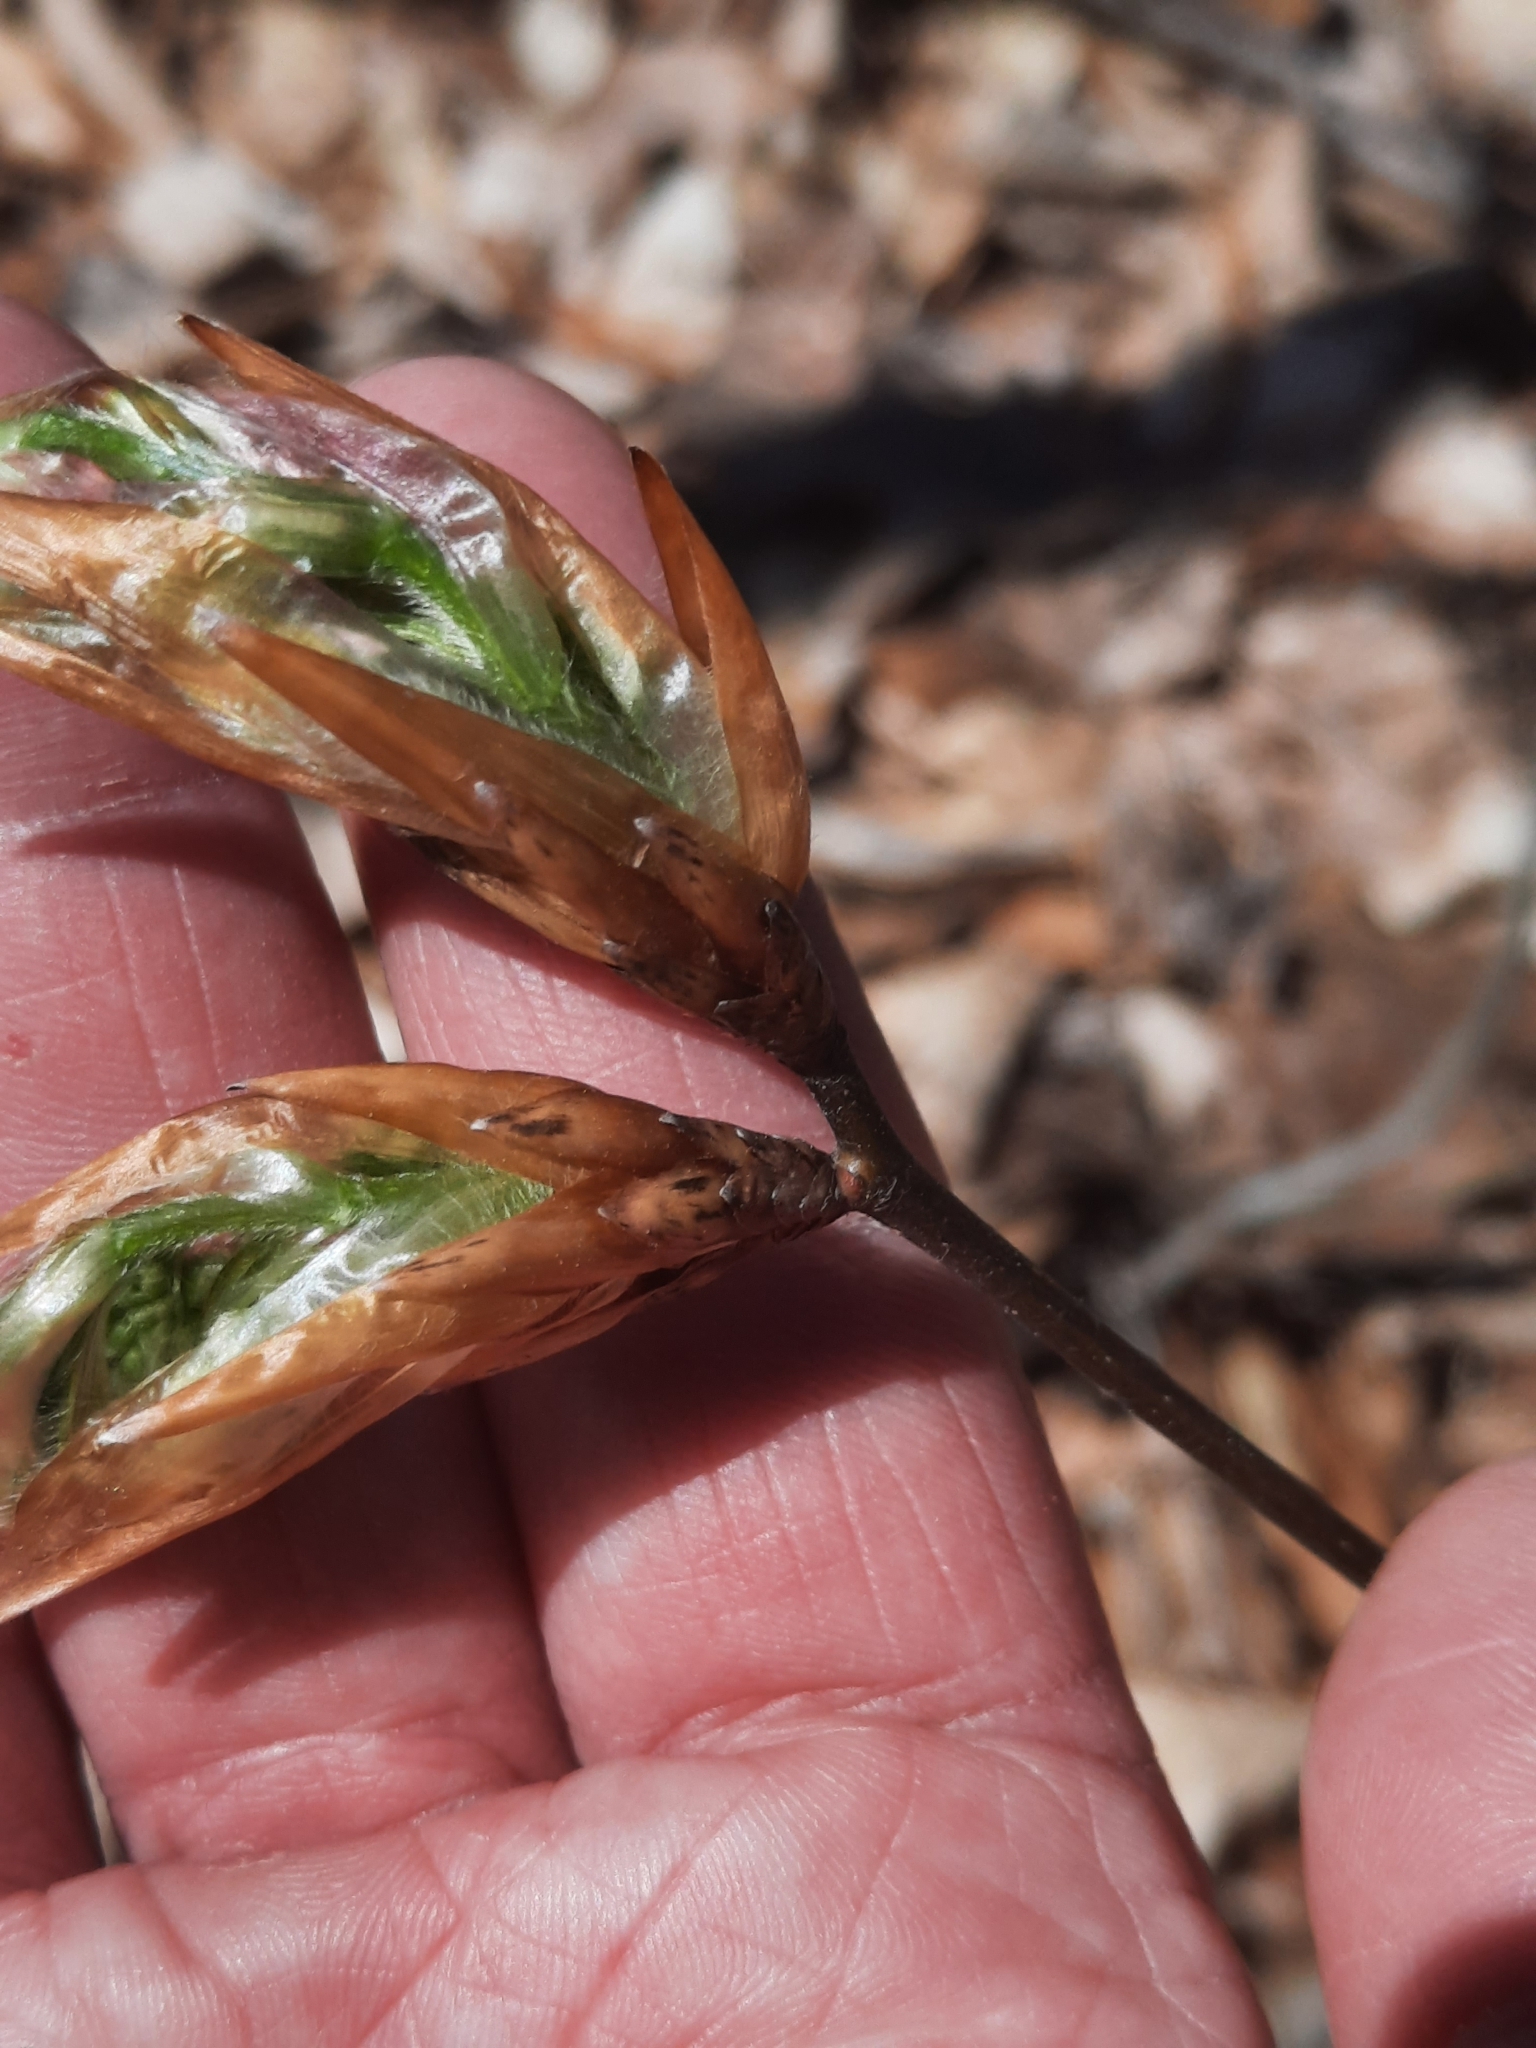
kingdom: Plantae
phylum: Tracheophyta
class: Magnoliopsida
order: Fagales
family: Fagaceae
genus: Fagus
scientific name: Fagus grandifolia
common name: American beech
